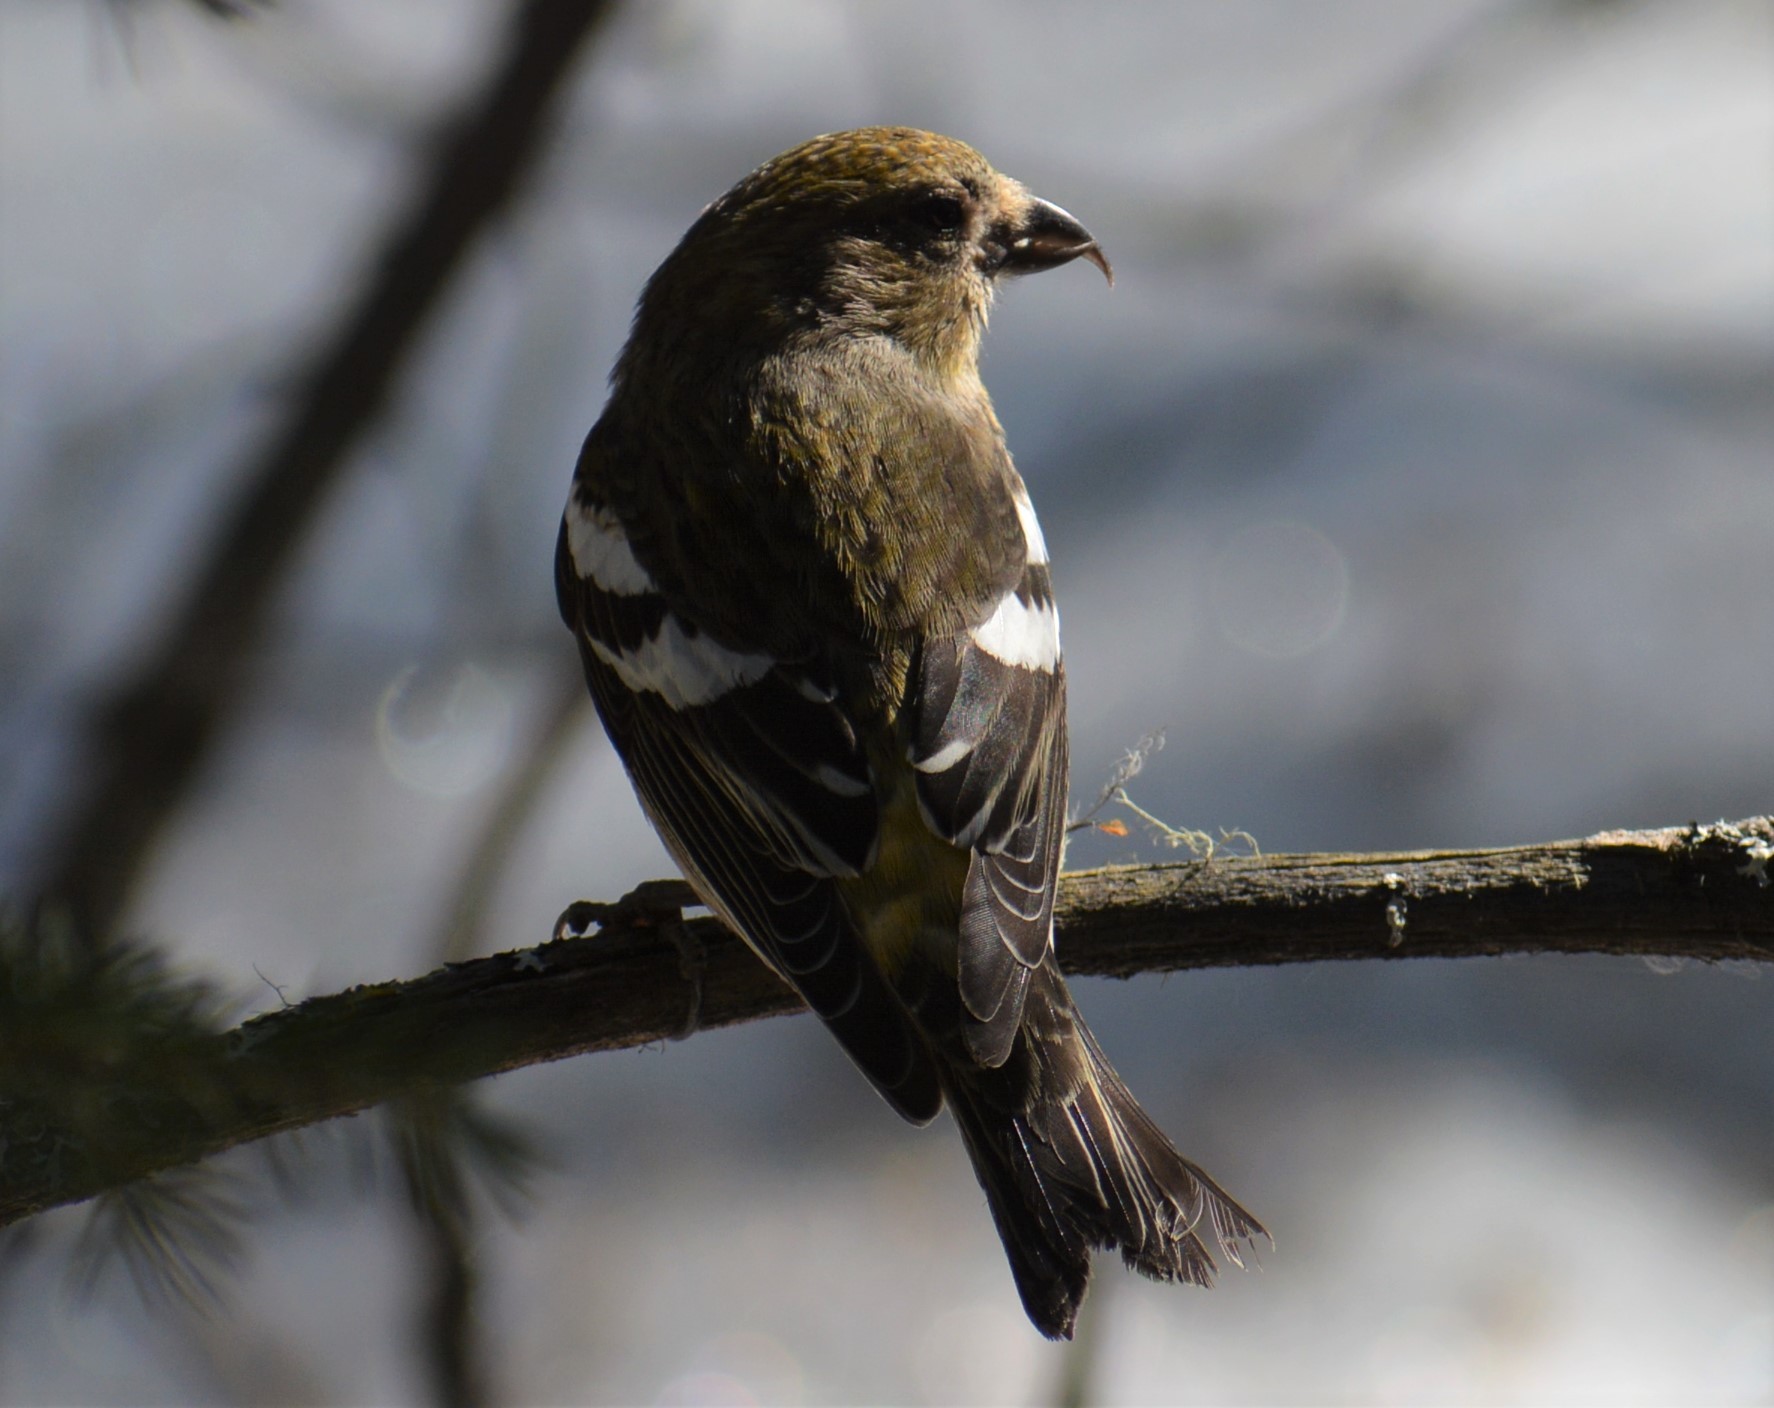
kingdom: Animalia
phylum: Chordata
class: Aves
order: Passeriformes
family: Fringillidae
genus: Loxia
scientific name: Loxia leucoptera
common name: Two-barred crossbill
